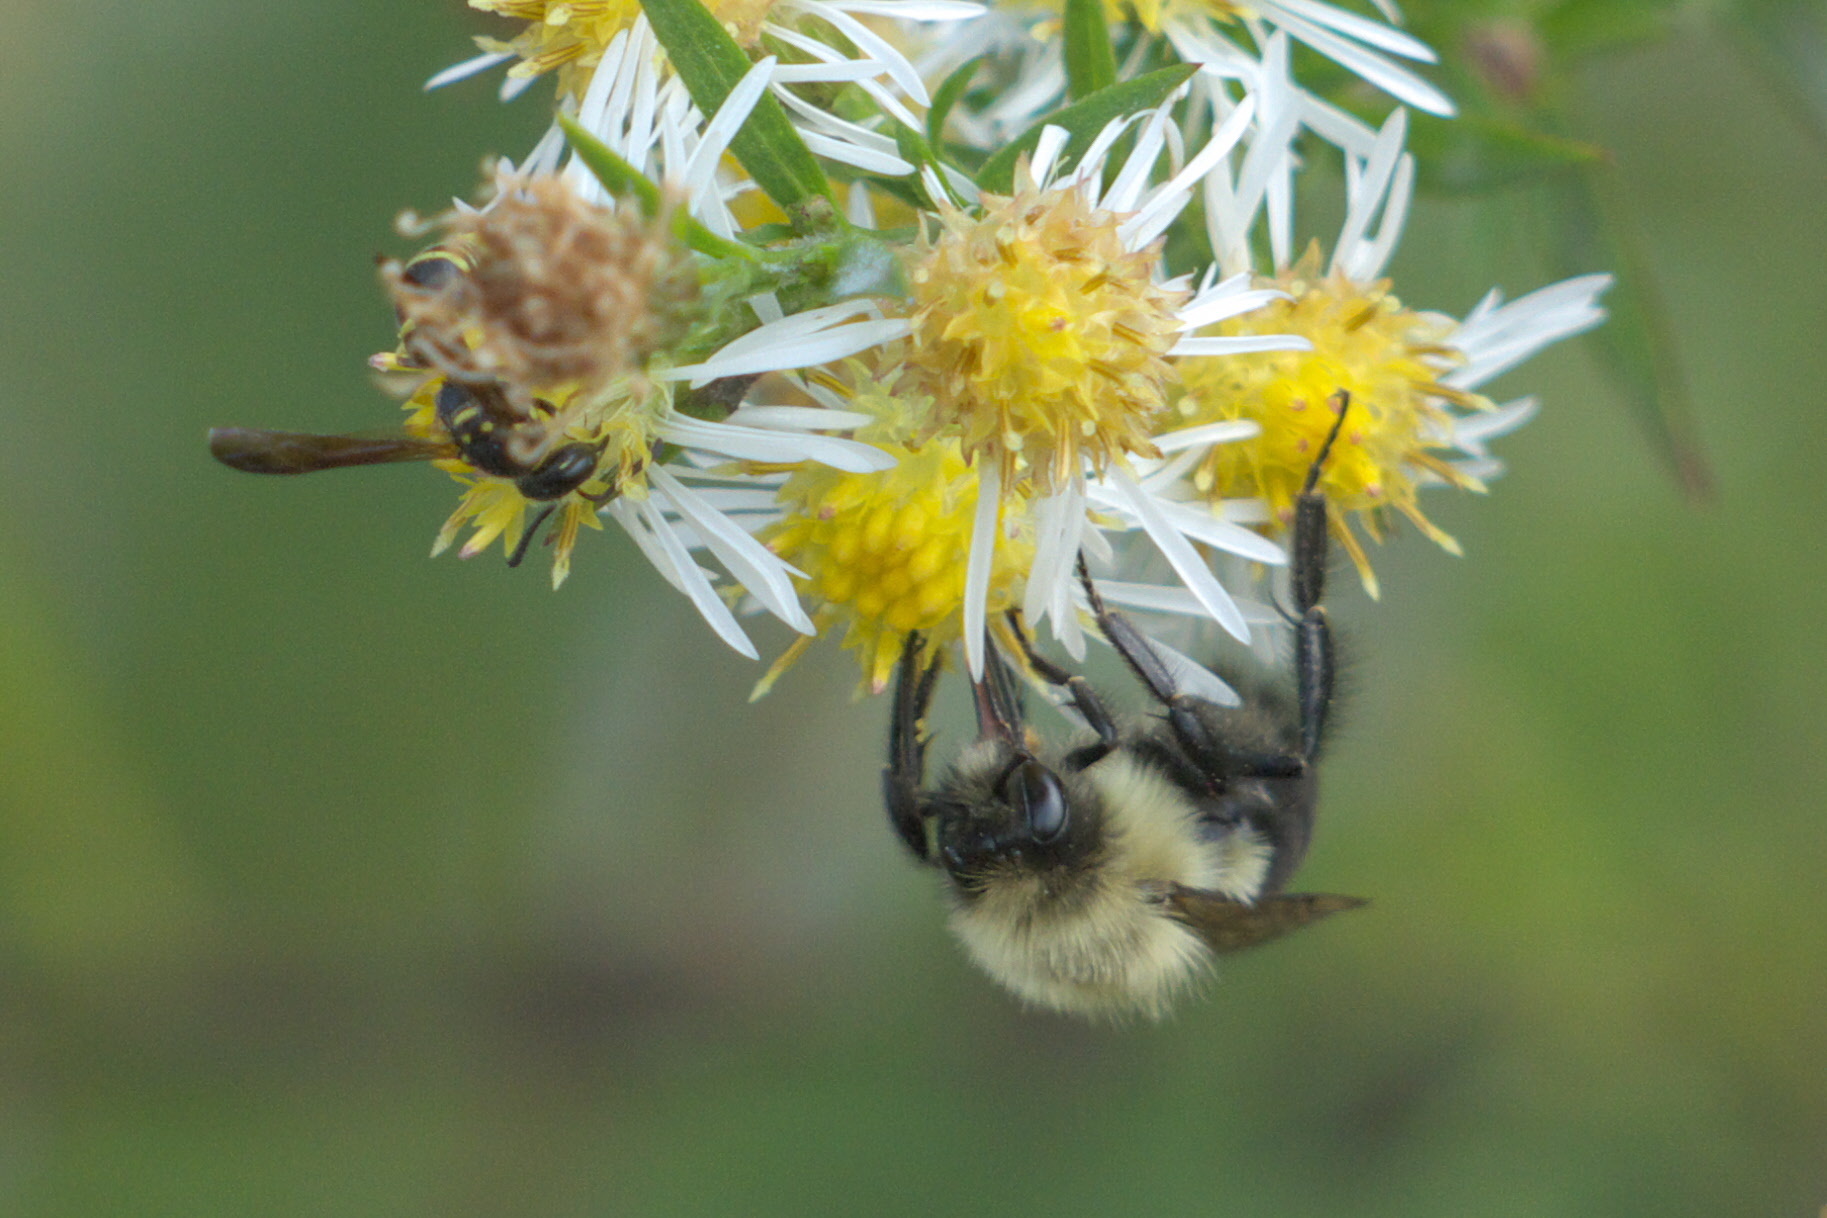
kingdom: Animalia
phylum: Arthropoda
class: Insecta
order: Hymenoptera
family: Apidae
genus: Bombus
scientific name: Bombus impatiens
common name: Common eastern bumble bee
